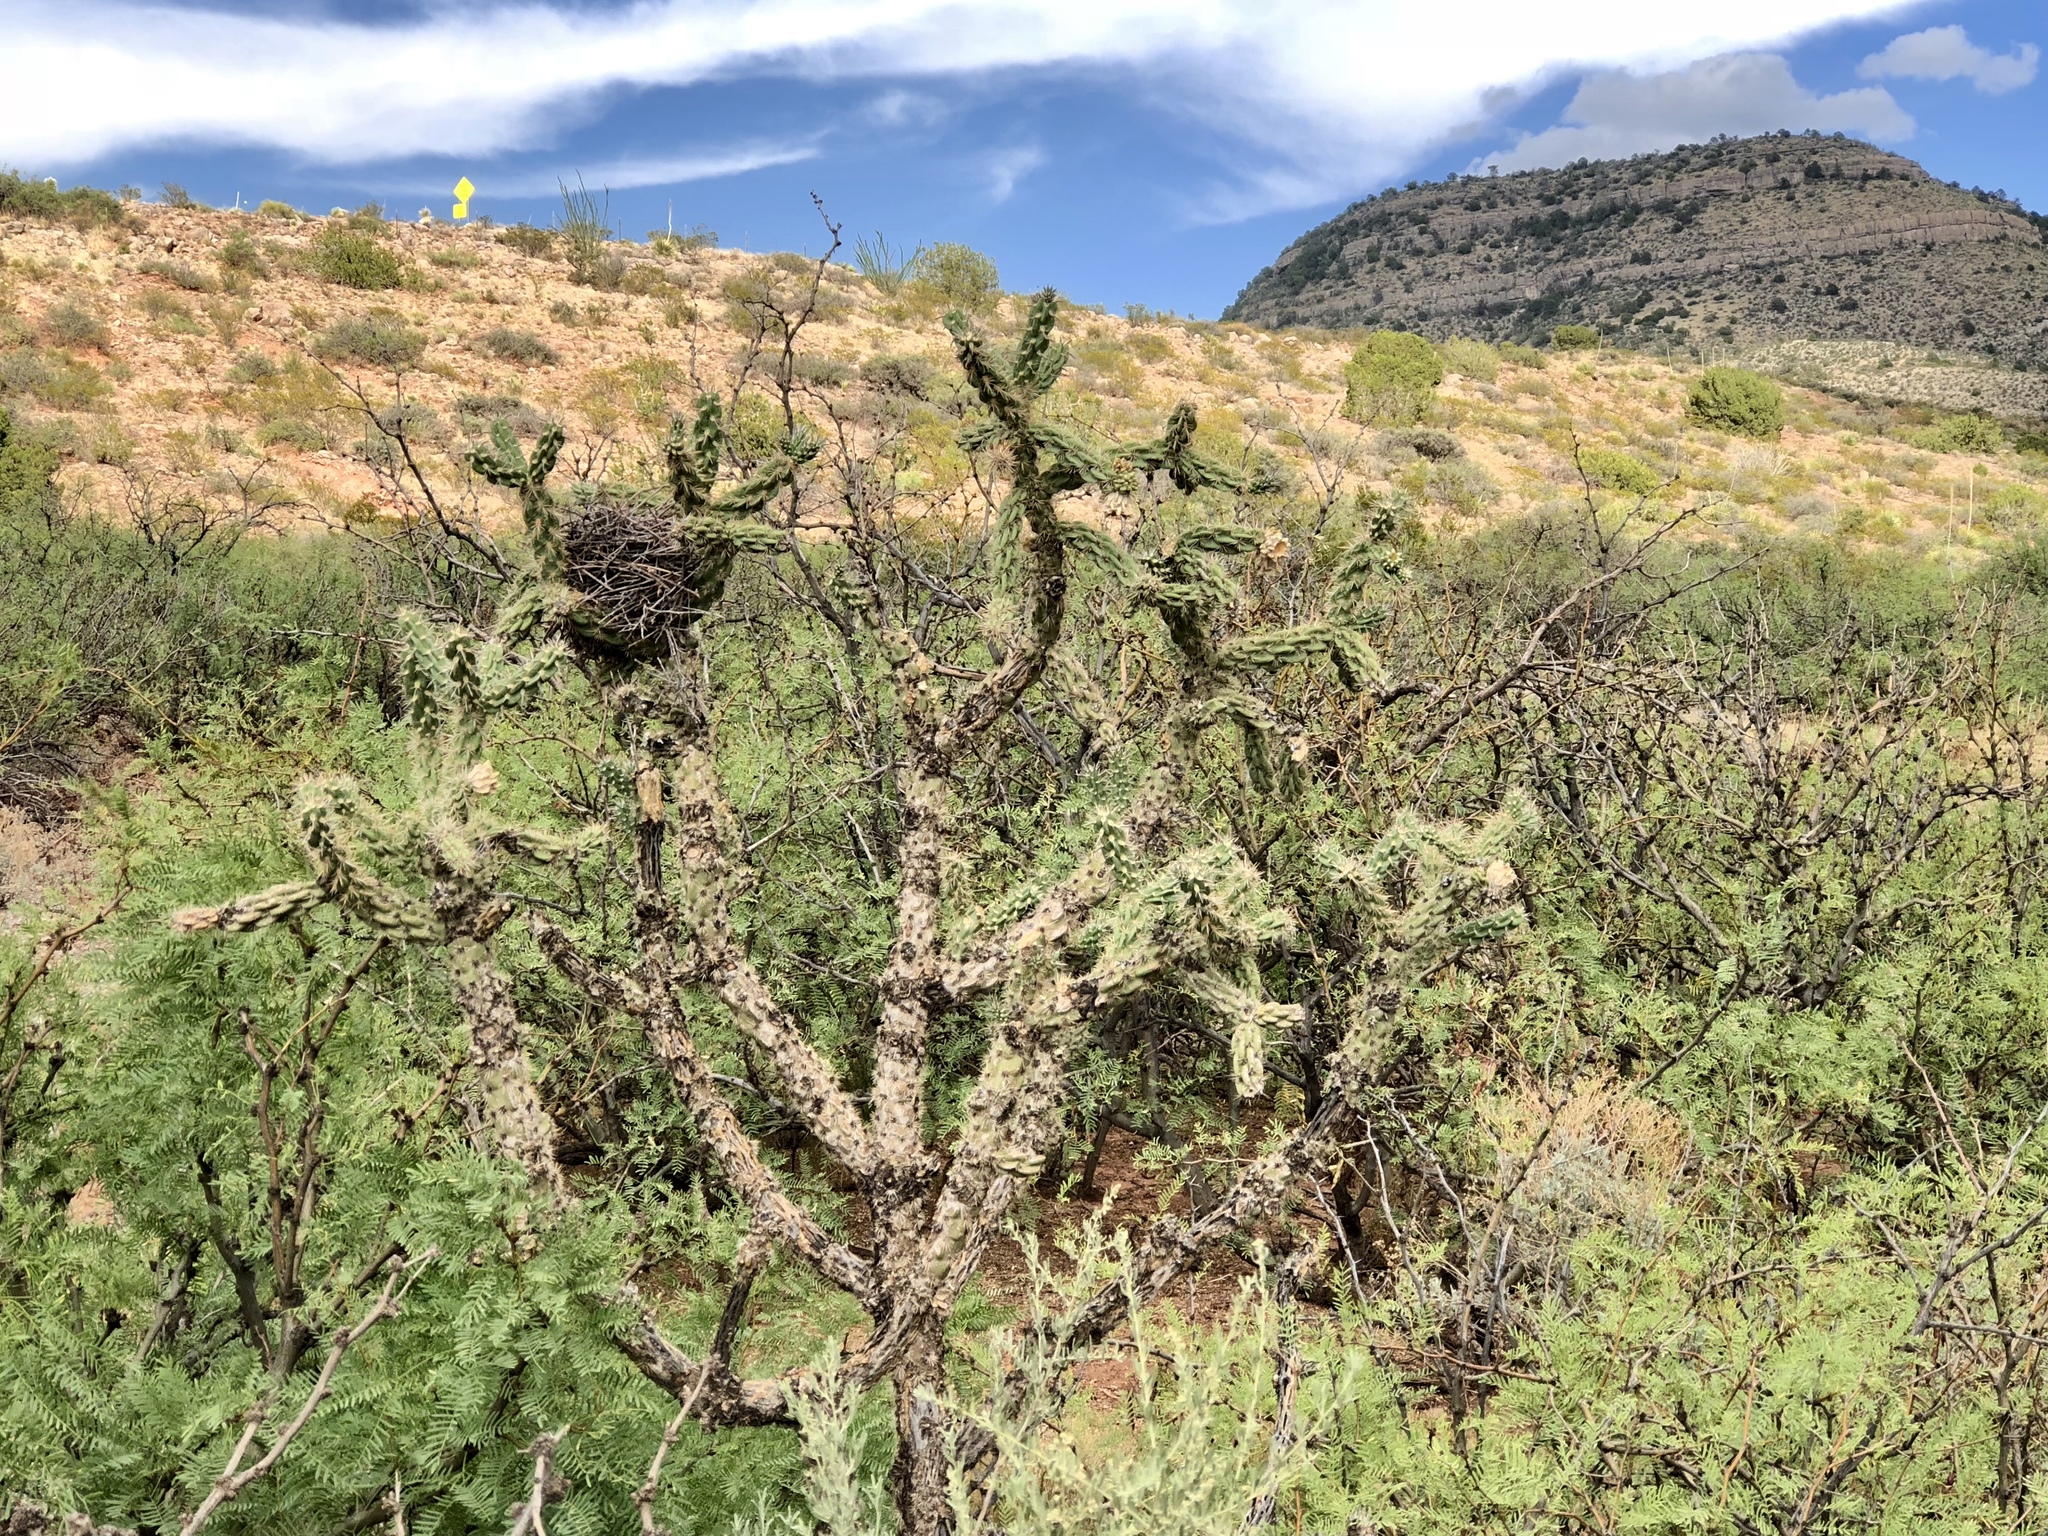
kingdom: Plantae
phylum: Tracheophyta
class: Magnoliopsida
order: Caryophyllales
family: Cactaceae
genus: Cylindropuntia
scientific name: Cylindropuntia imbricata
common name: Candelabrum cactus
